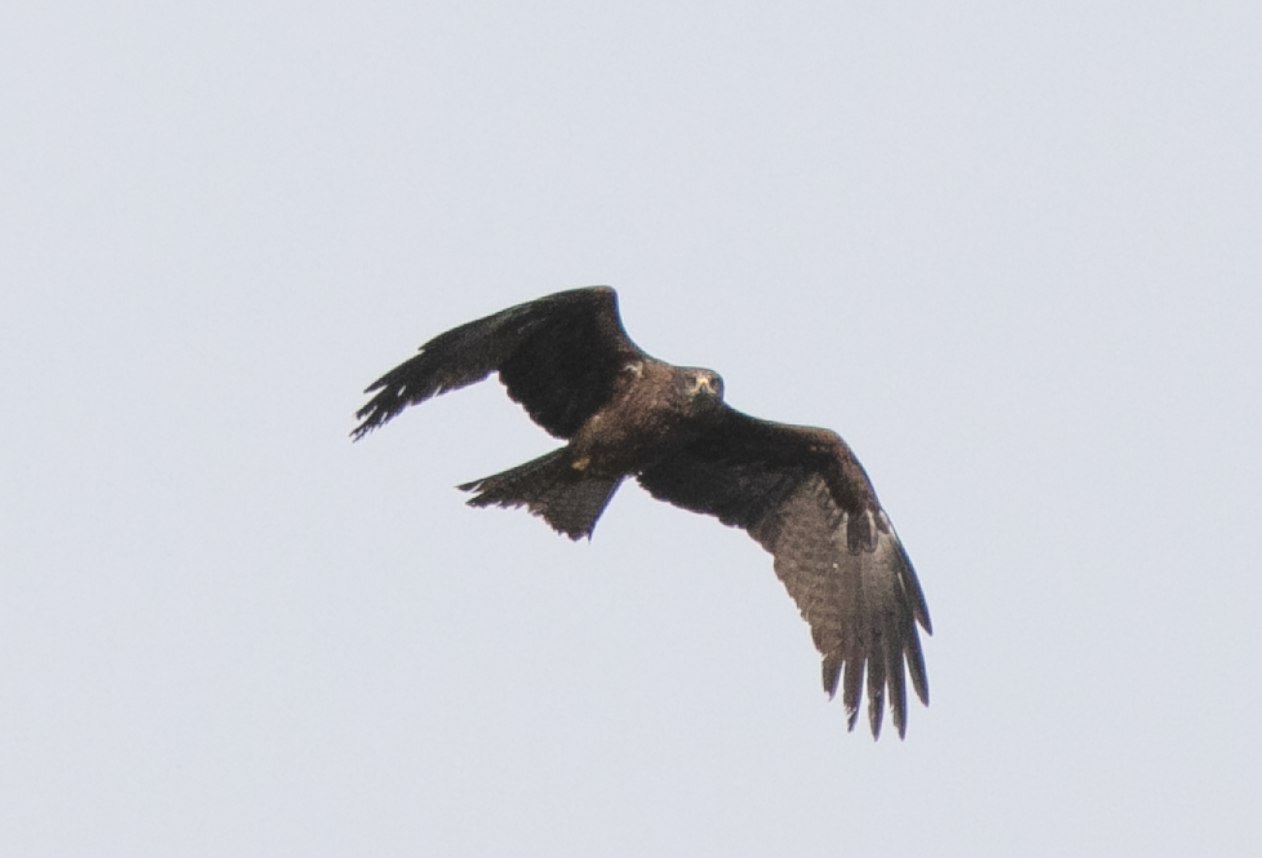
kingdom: Animalia
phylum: Chordata
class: Aves
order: Accipitriformes
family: Accipitridae
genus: Milvus
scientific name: Milvus migrans
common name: Black kite
